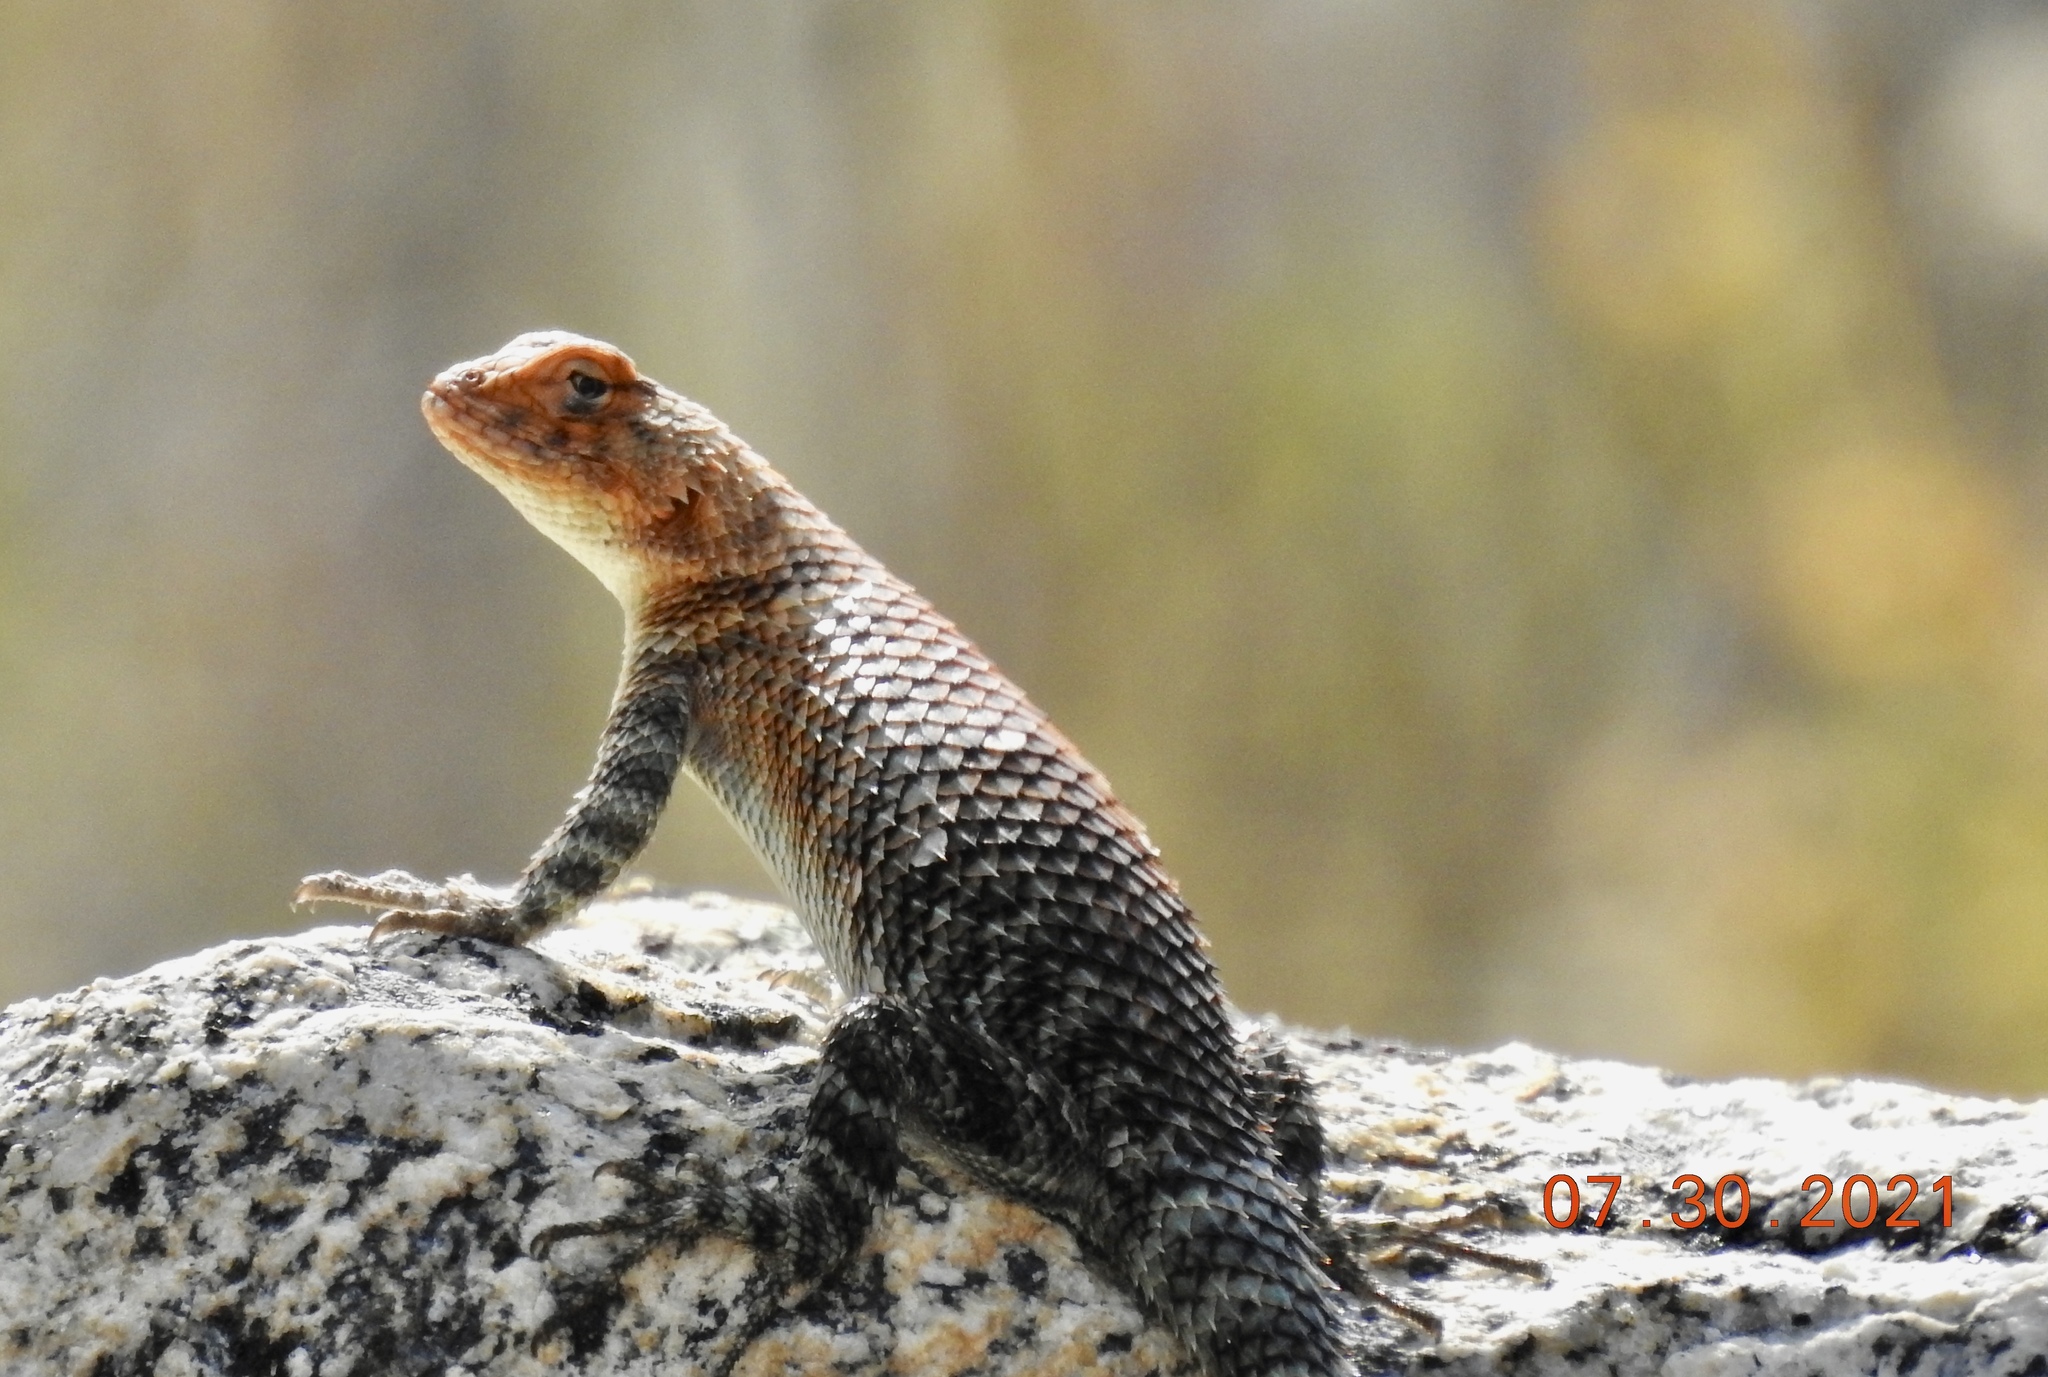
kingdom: Animalia
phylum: Chordata
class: Squamata
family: Phrynosomatidae
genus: Sceloporus
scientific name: Sceloporus orcutti
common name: Granite spiny lizard
